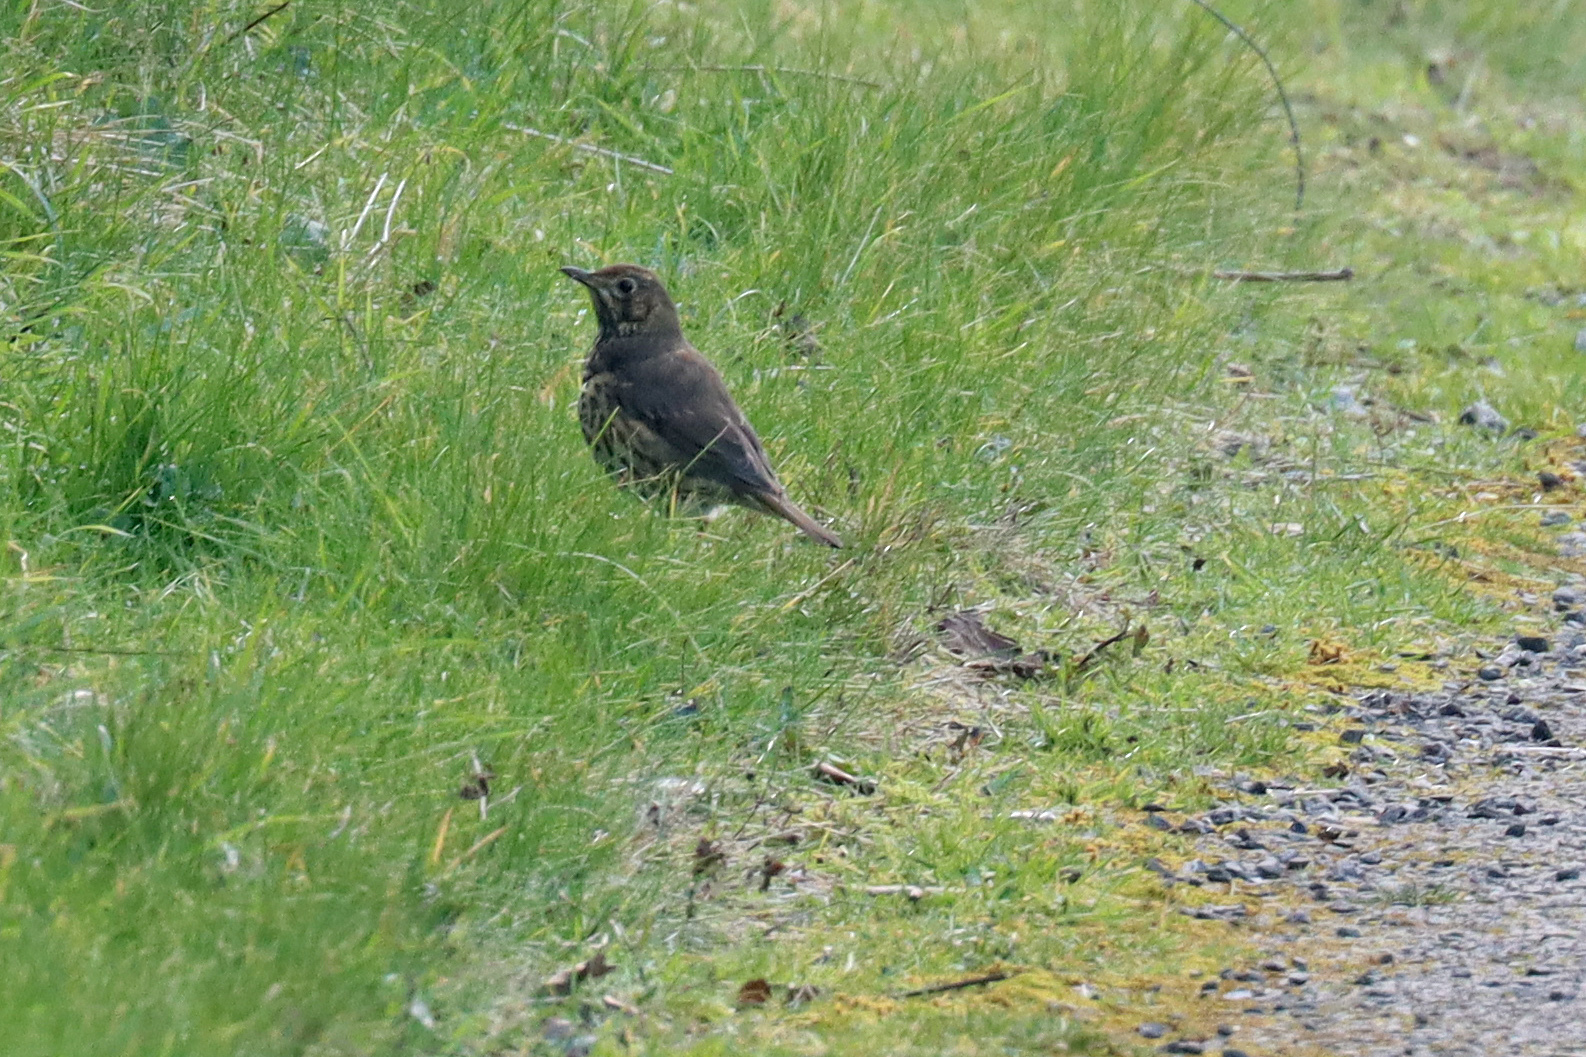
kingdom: Animalia
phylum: Chordata
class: Aves
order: Passeriformes
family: Turdidae
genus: Turdus
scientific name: Turdus philomelos
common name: Song thrush
